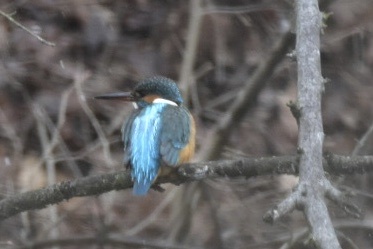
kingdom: Animalia
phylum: Chordata
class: Aves
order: Coraciiformes
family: Alcedinidae
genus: Alcedo
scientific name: Alcedo atthis
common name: Common kingfisher
